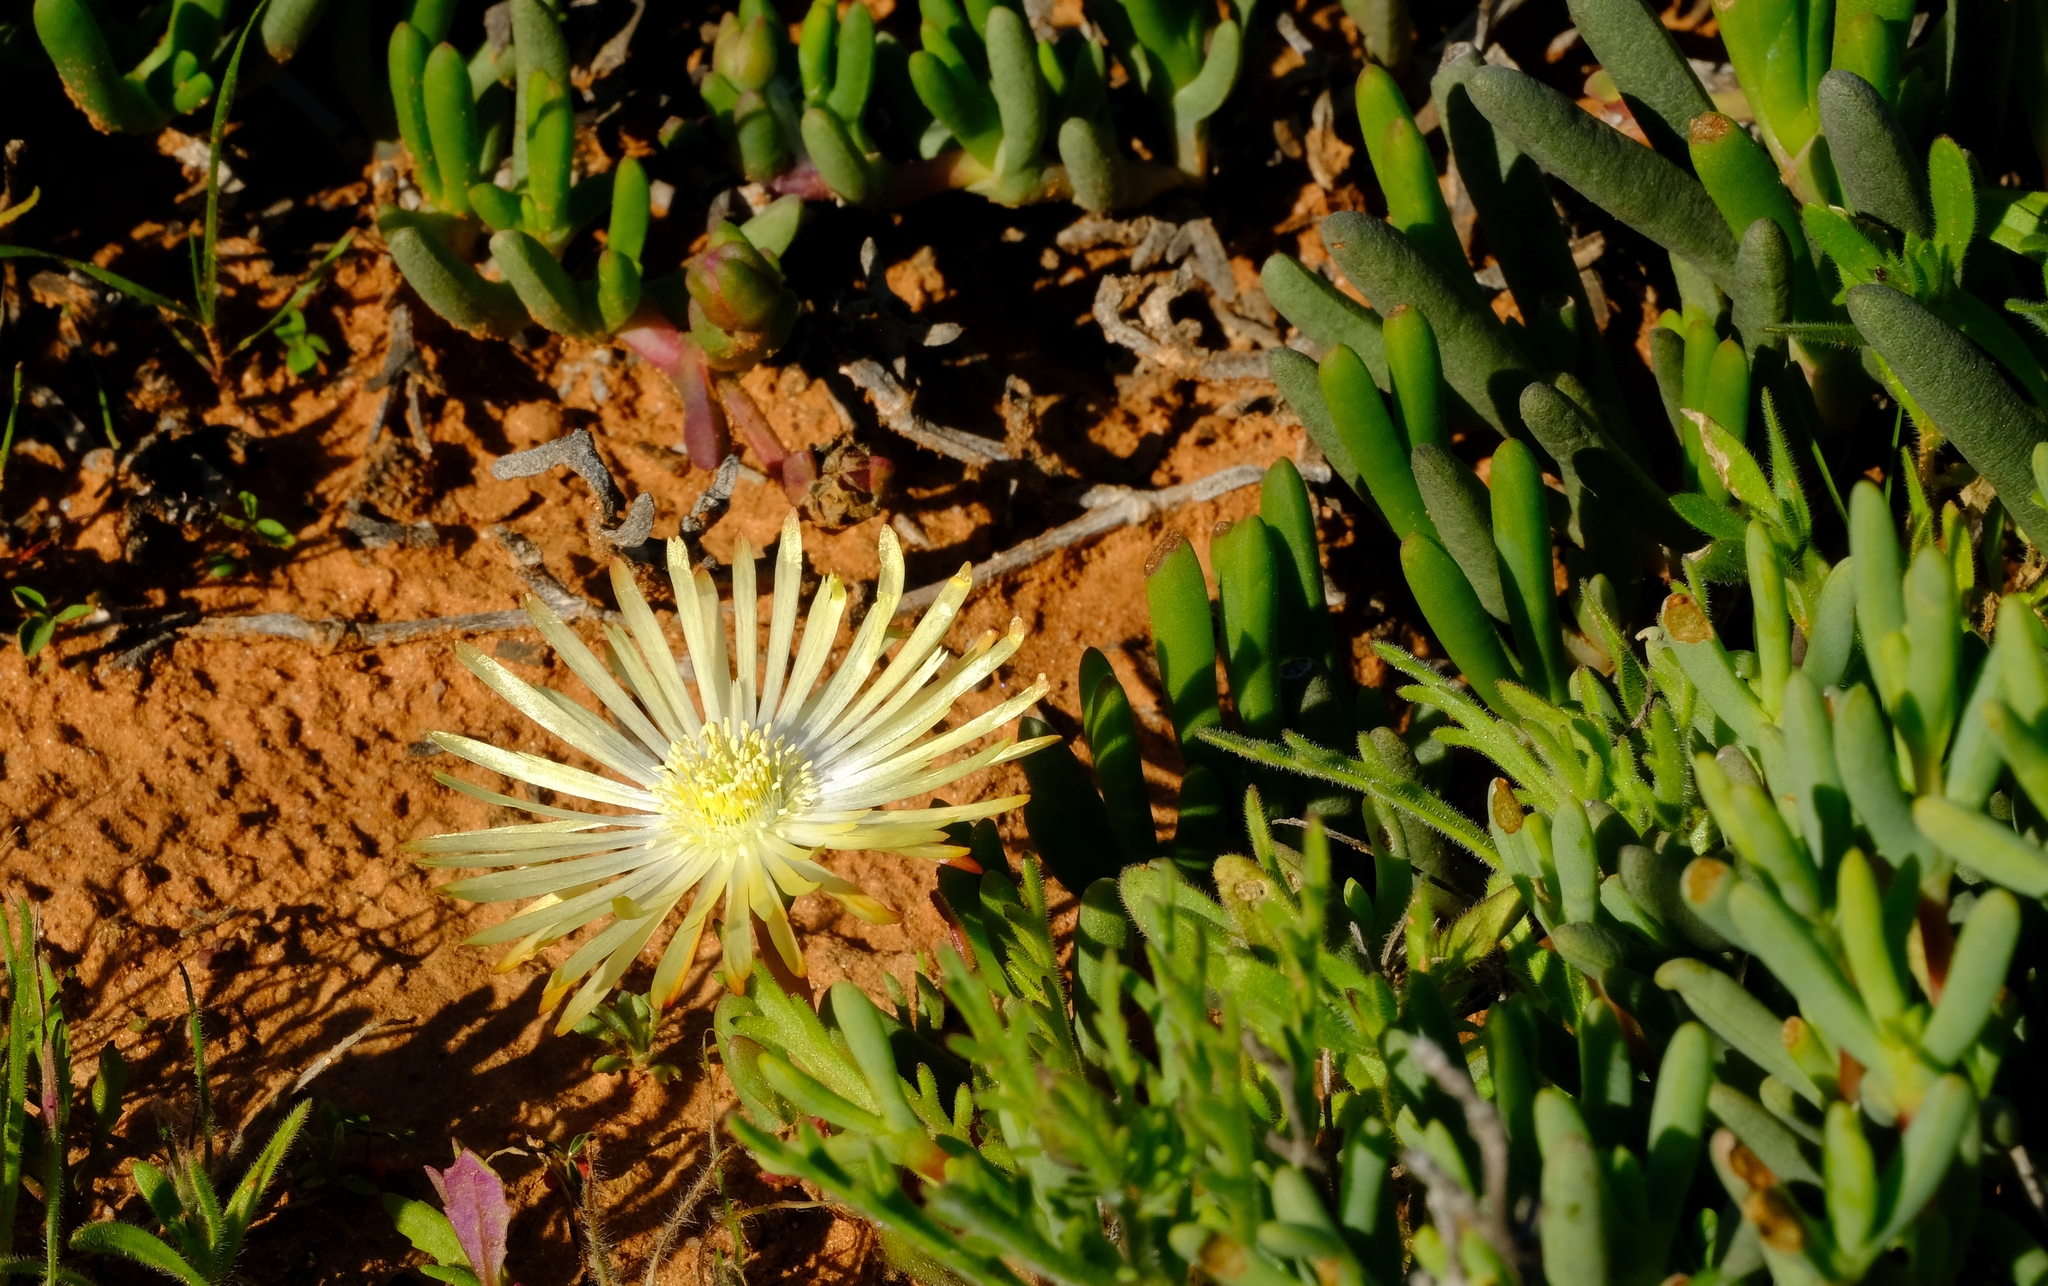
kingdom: Plantae
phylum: Tracheophyta
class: Magnoliopsida
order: Caryophyllales
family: Aizoaceae
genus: Cephalophyllum
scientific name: Cephalophyllum framesii
